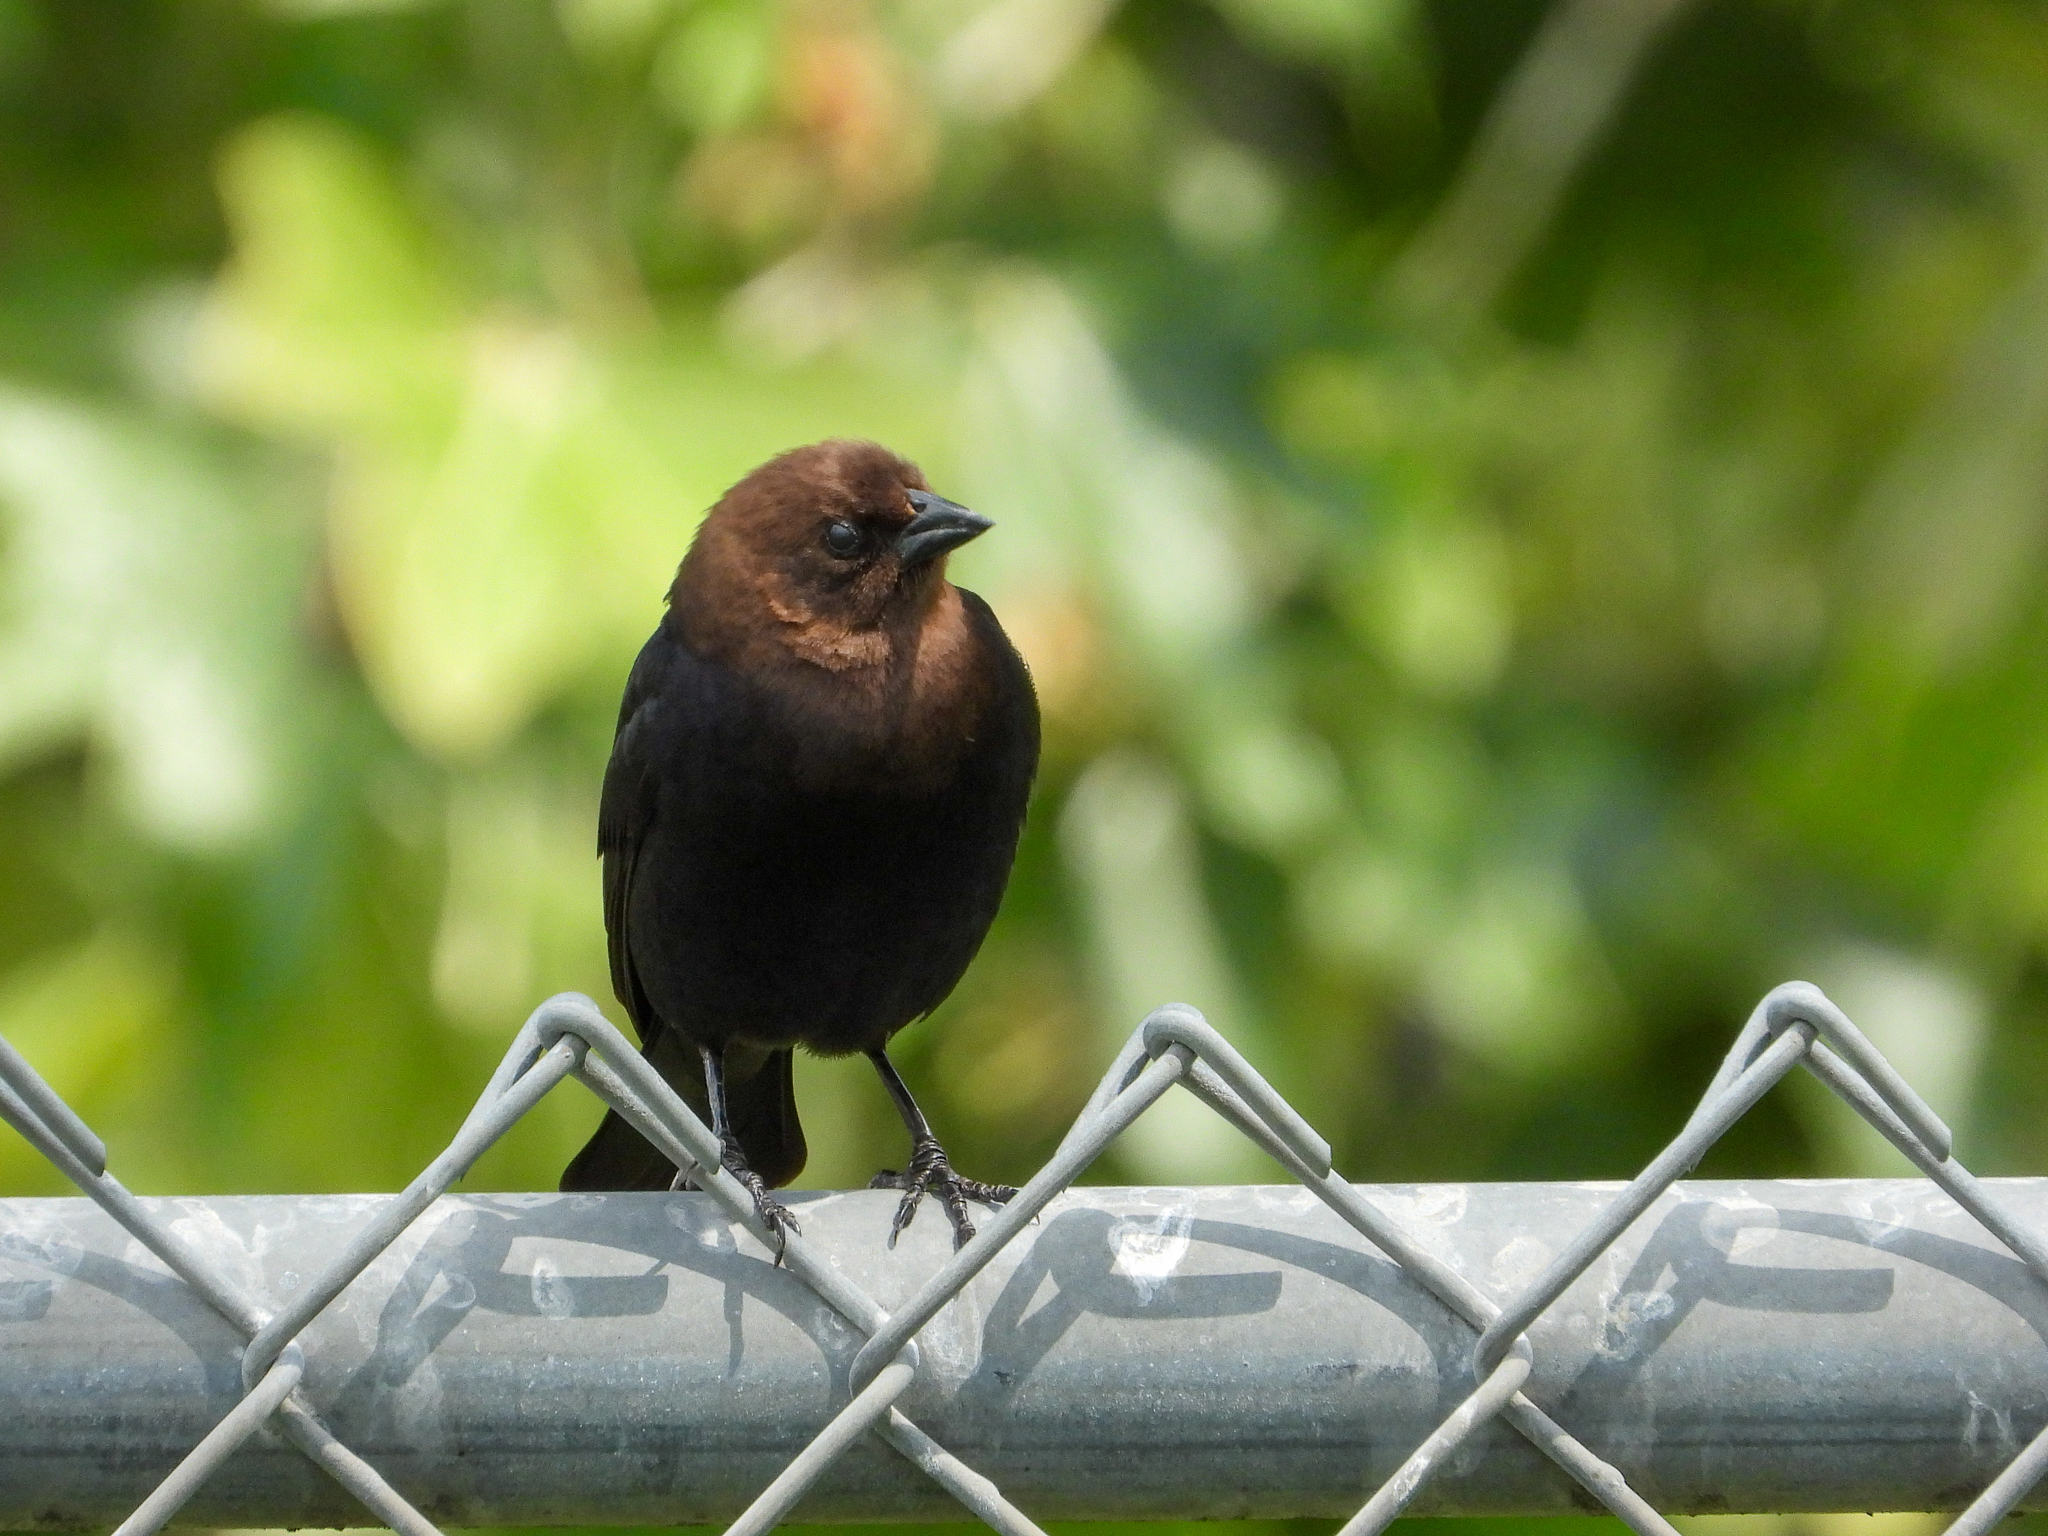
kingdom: Animalia
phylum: Chordata
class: Aves
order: Passeriformes
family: Icteridae
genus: Molothrus
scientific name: Molothrus ater
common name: Brown-headed cowbird
